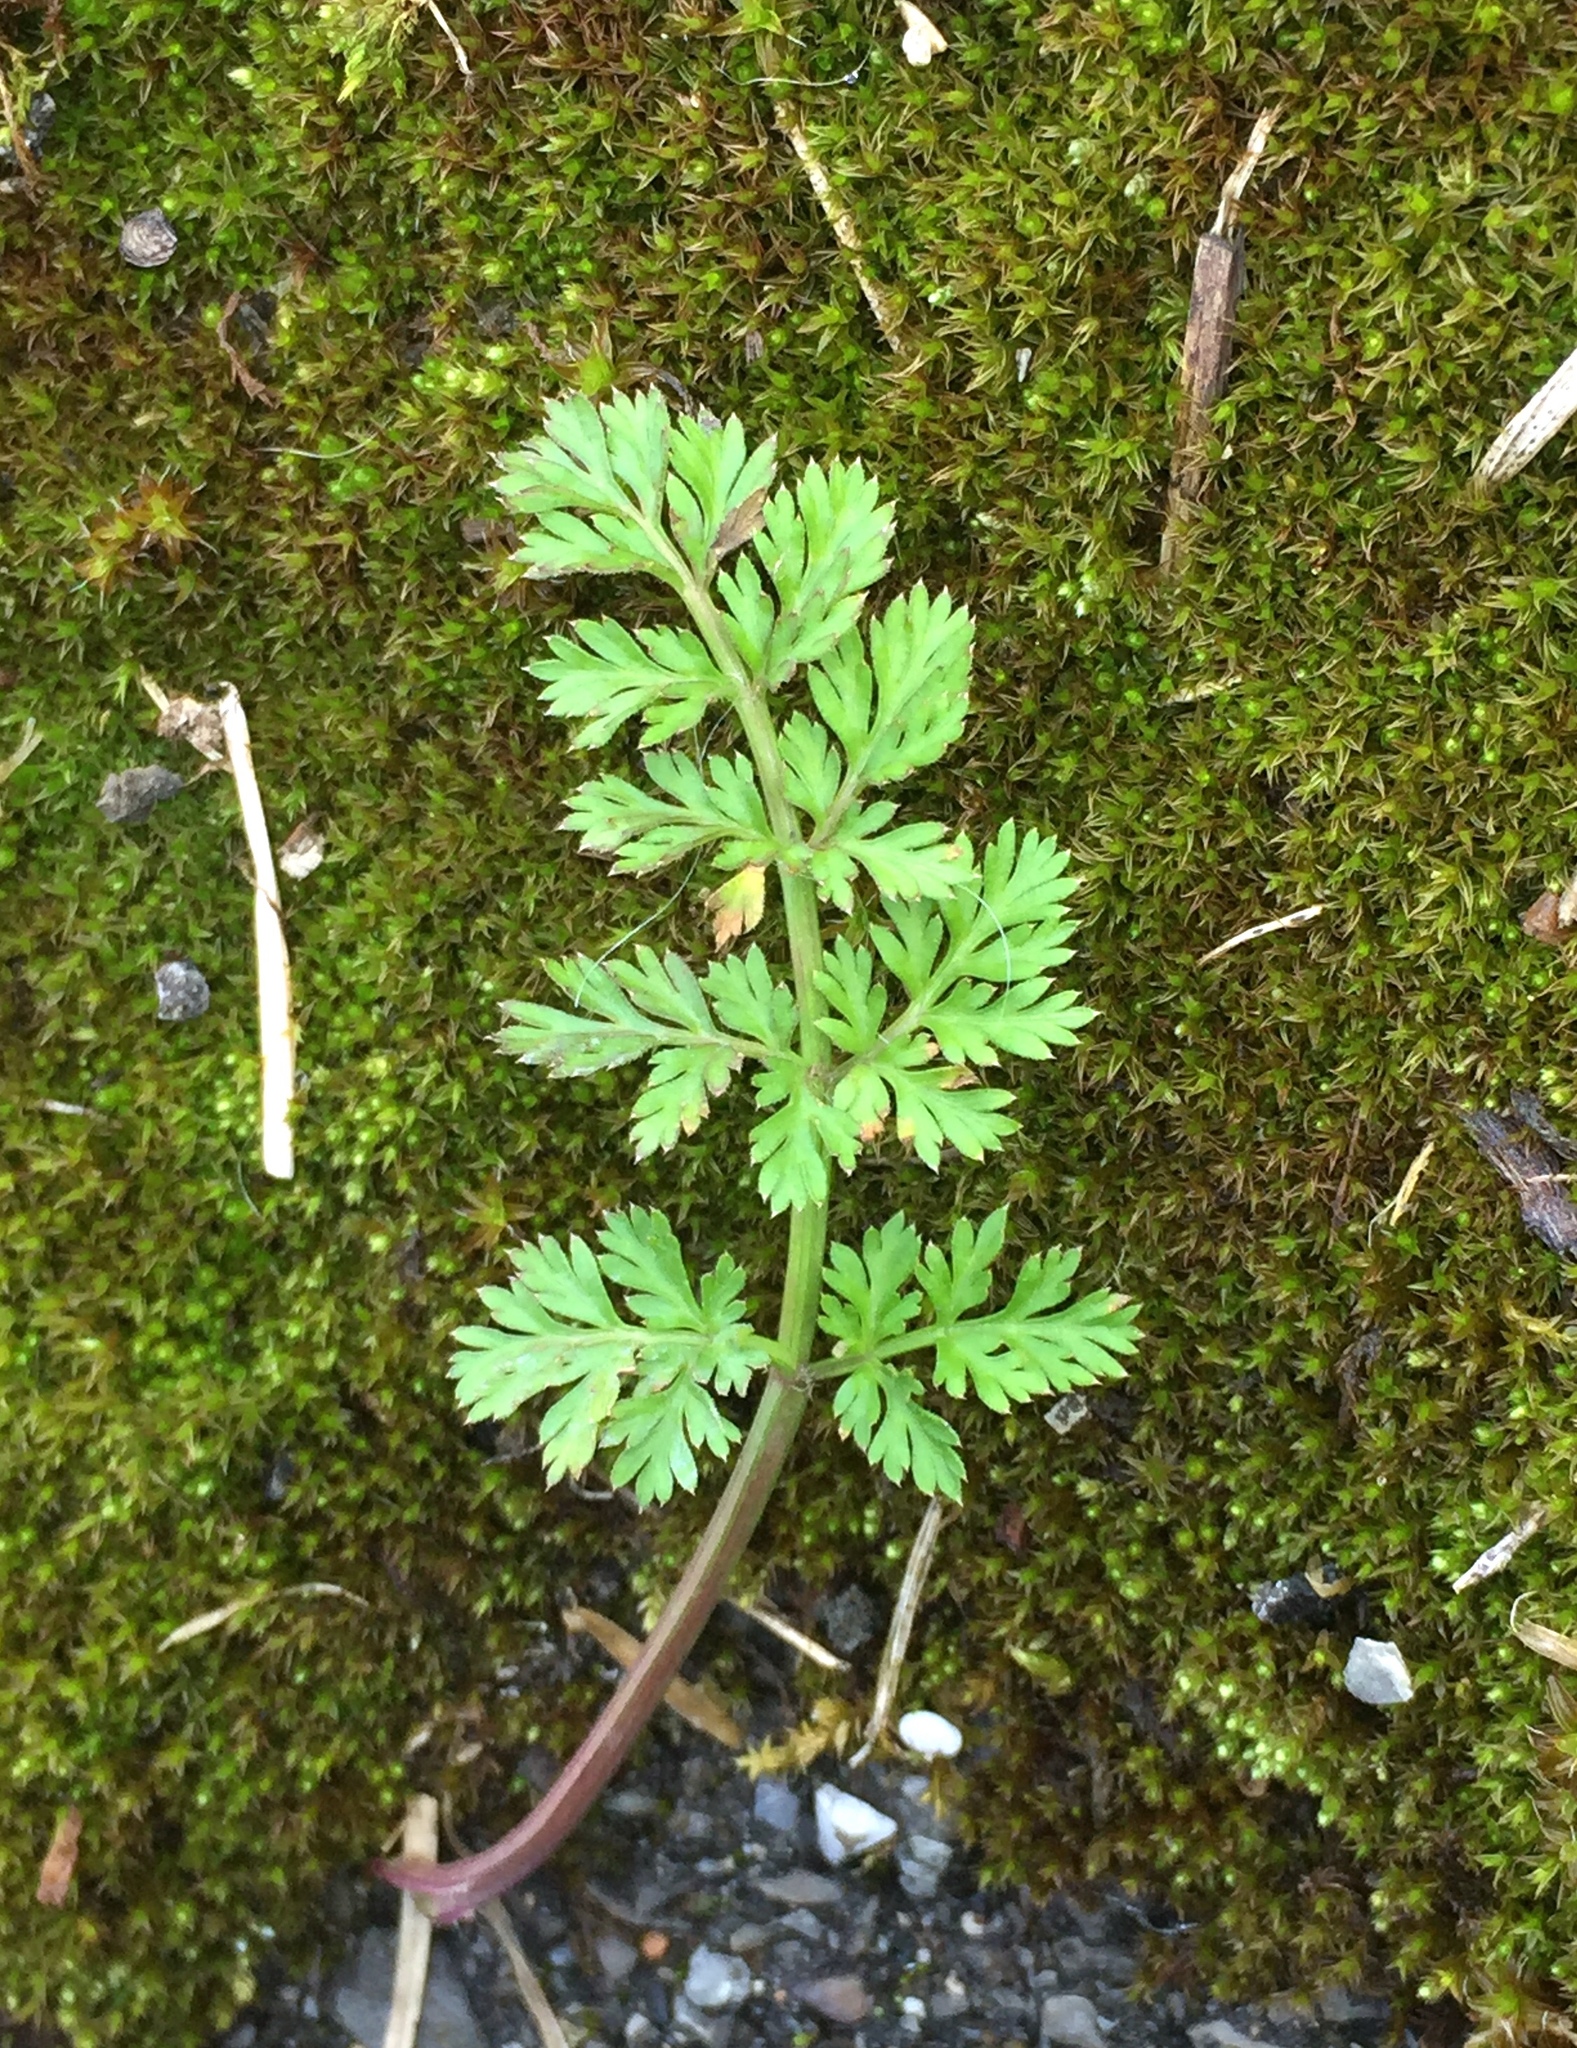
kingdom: Plantae
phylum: Tracheophyta
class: Magnoliopsida
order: Apiales
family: Apiaceae
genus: Daucus
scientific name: Daucus carota
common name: Wild carrot
